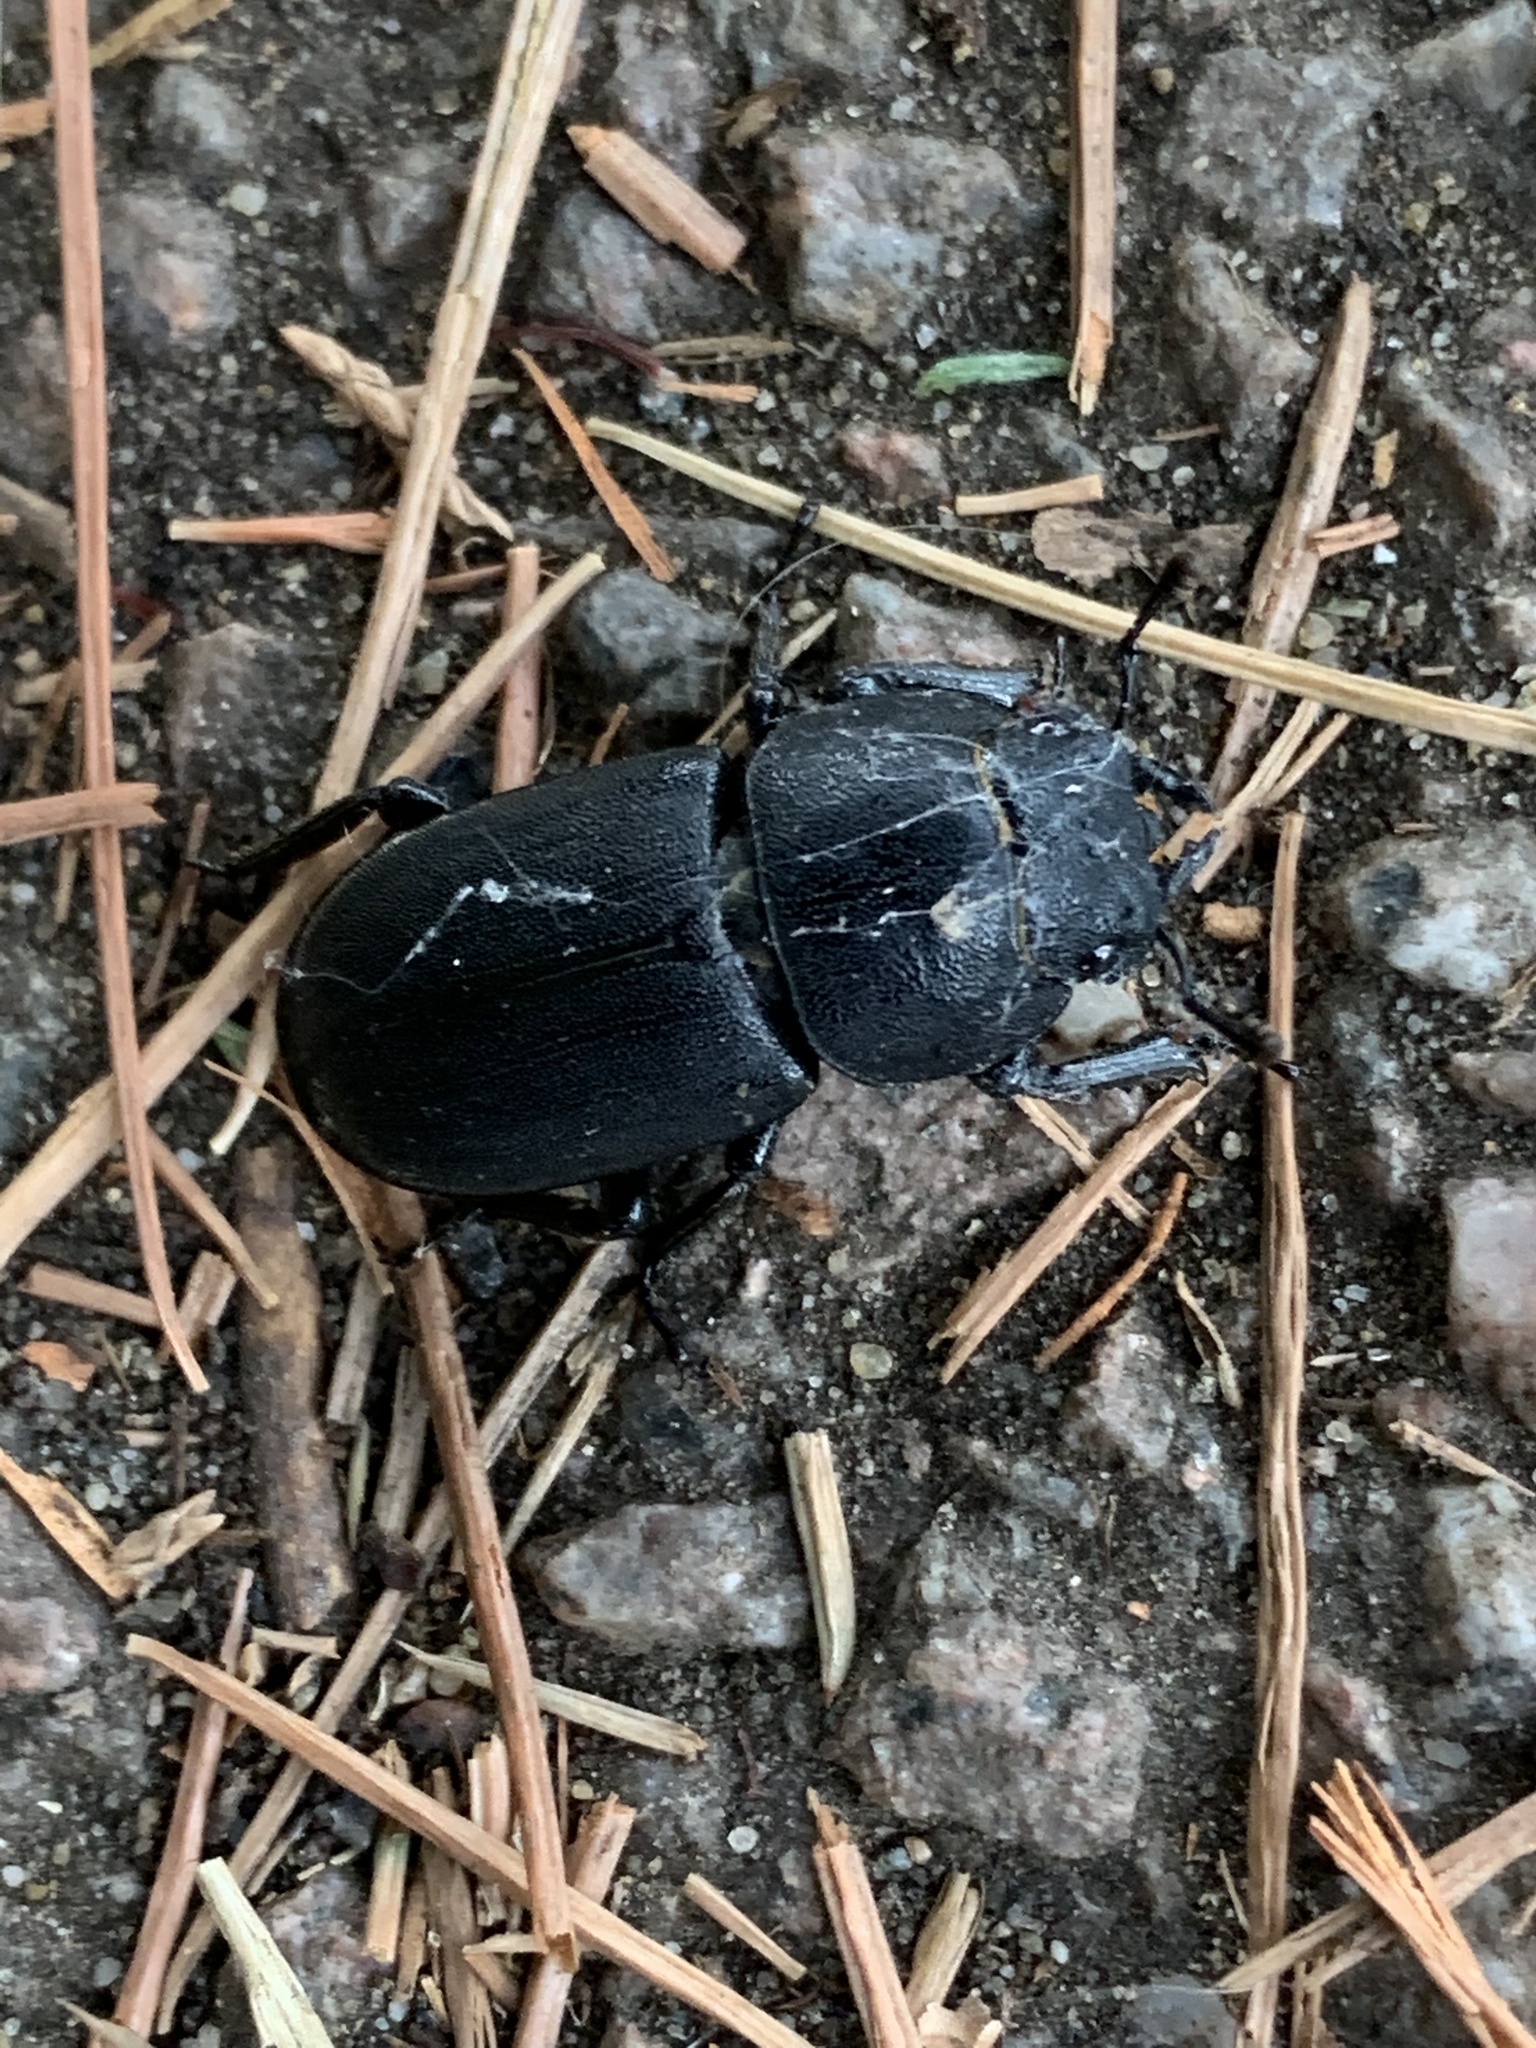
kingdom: Animalia
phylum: Arthropoda
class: Insecta
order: Coleoptera
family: Lucanidae
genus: Dorcus
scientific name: Dorcus parallelipipedus
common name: Lesser stag beetle
